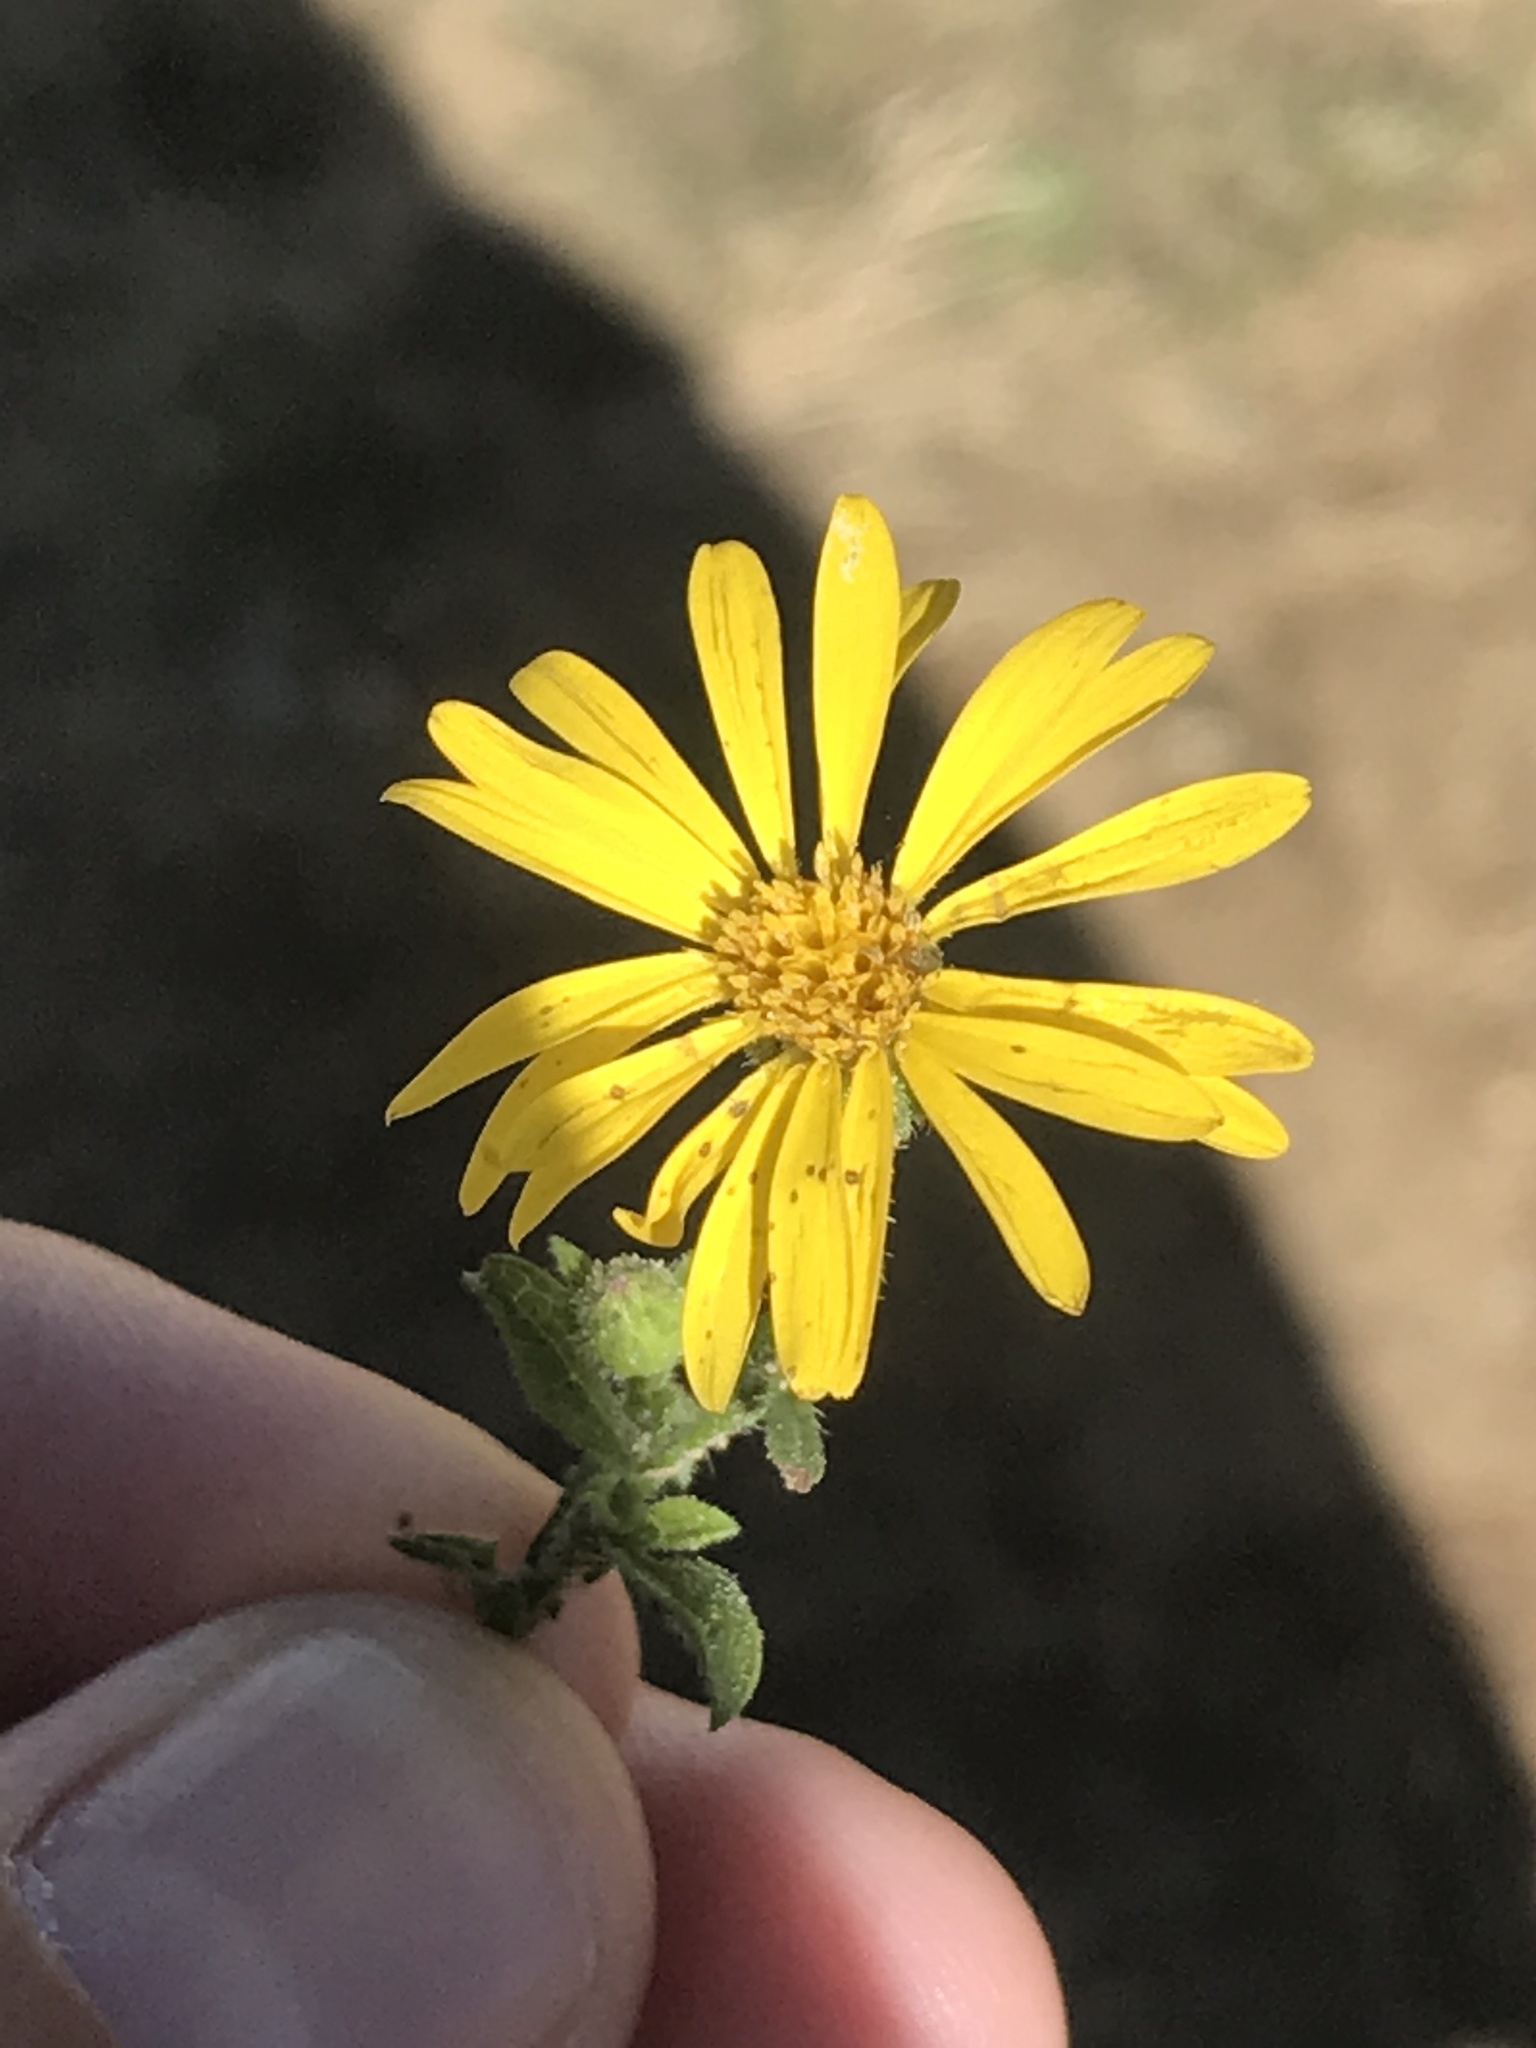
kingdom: Plantae
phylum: Tracheophyta
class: Magnoliopsida
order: Asterales
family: Asteraceae
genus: Heterotheca
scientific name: Heterotheca subaxillaris
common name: Camphorweed
